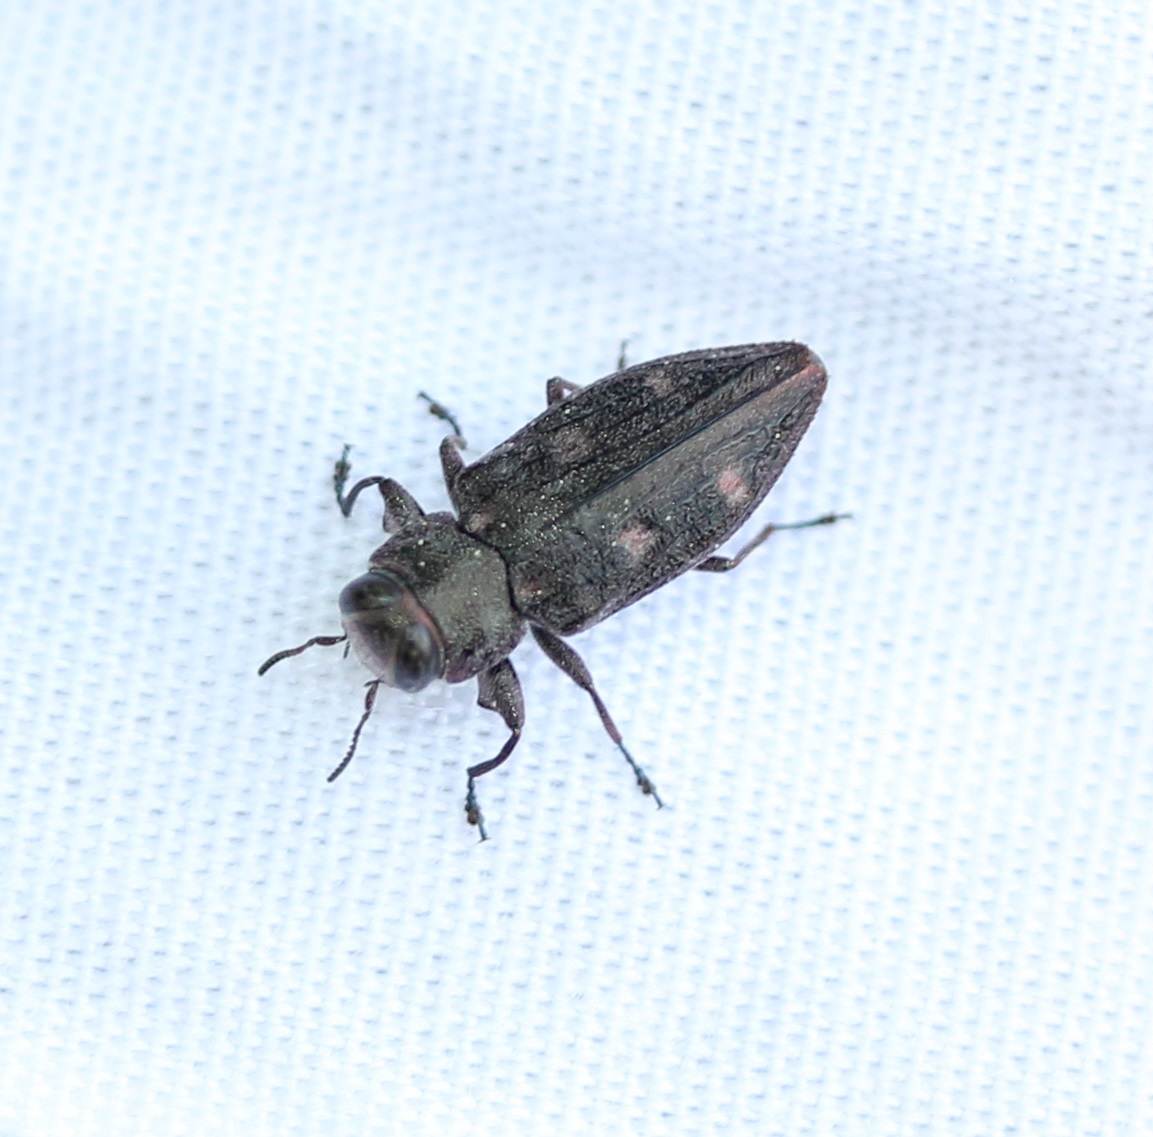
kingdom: Animalia
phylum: Arthropoda
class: Insecta
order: Coleoptera
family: Buprestidae
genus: Chrysobothris
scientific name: Chrysobothris sexsignata
